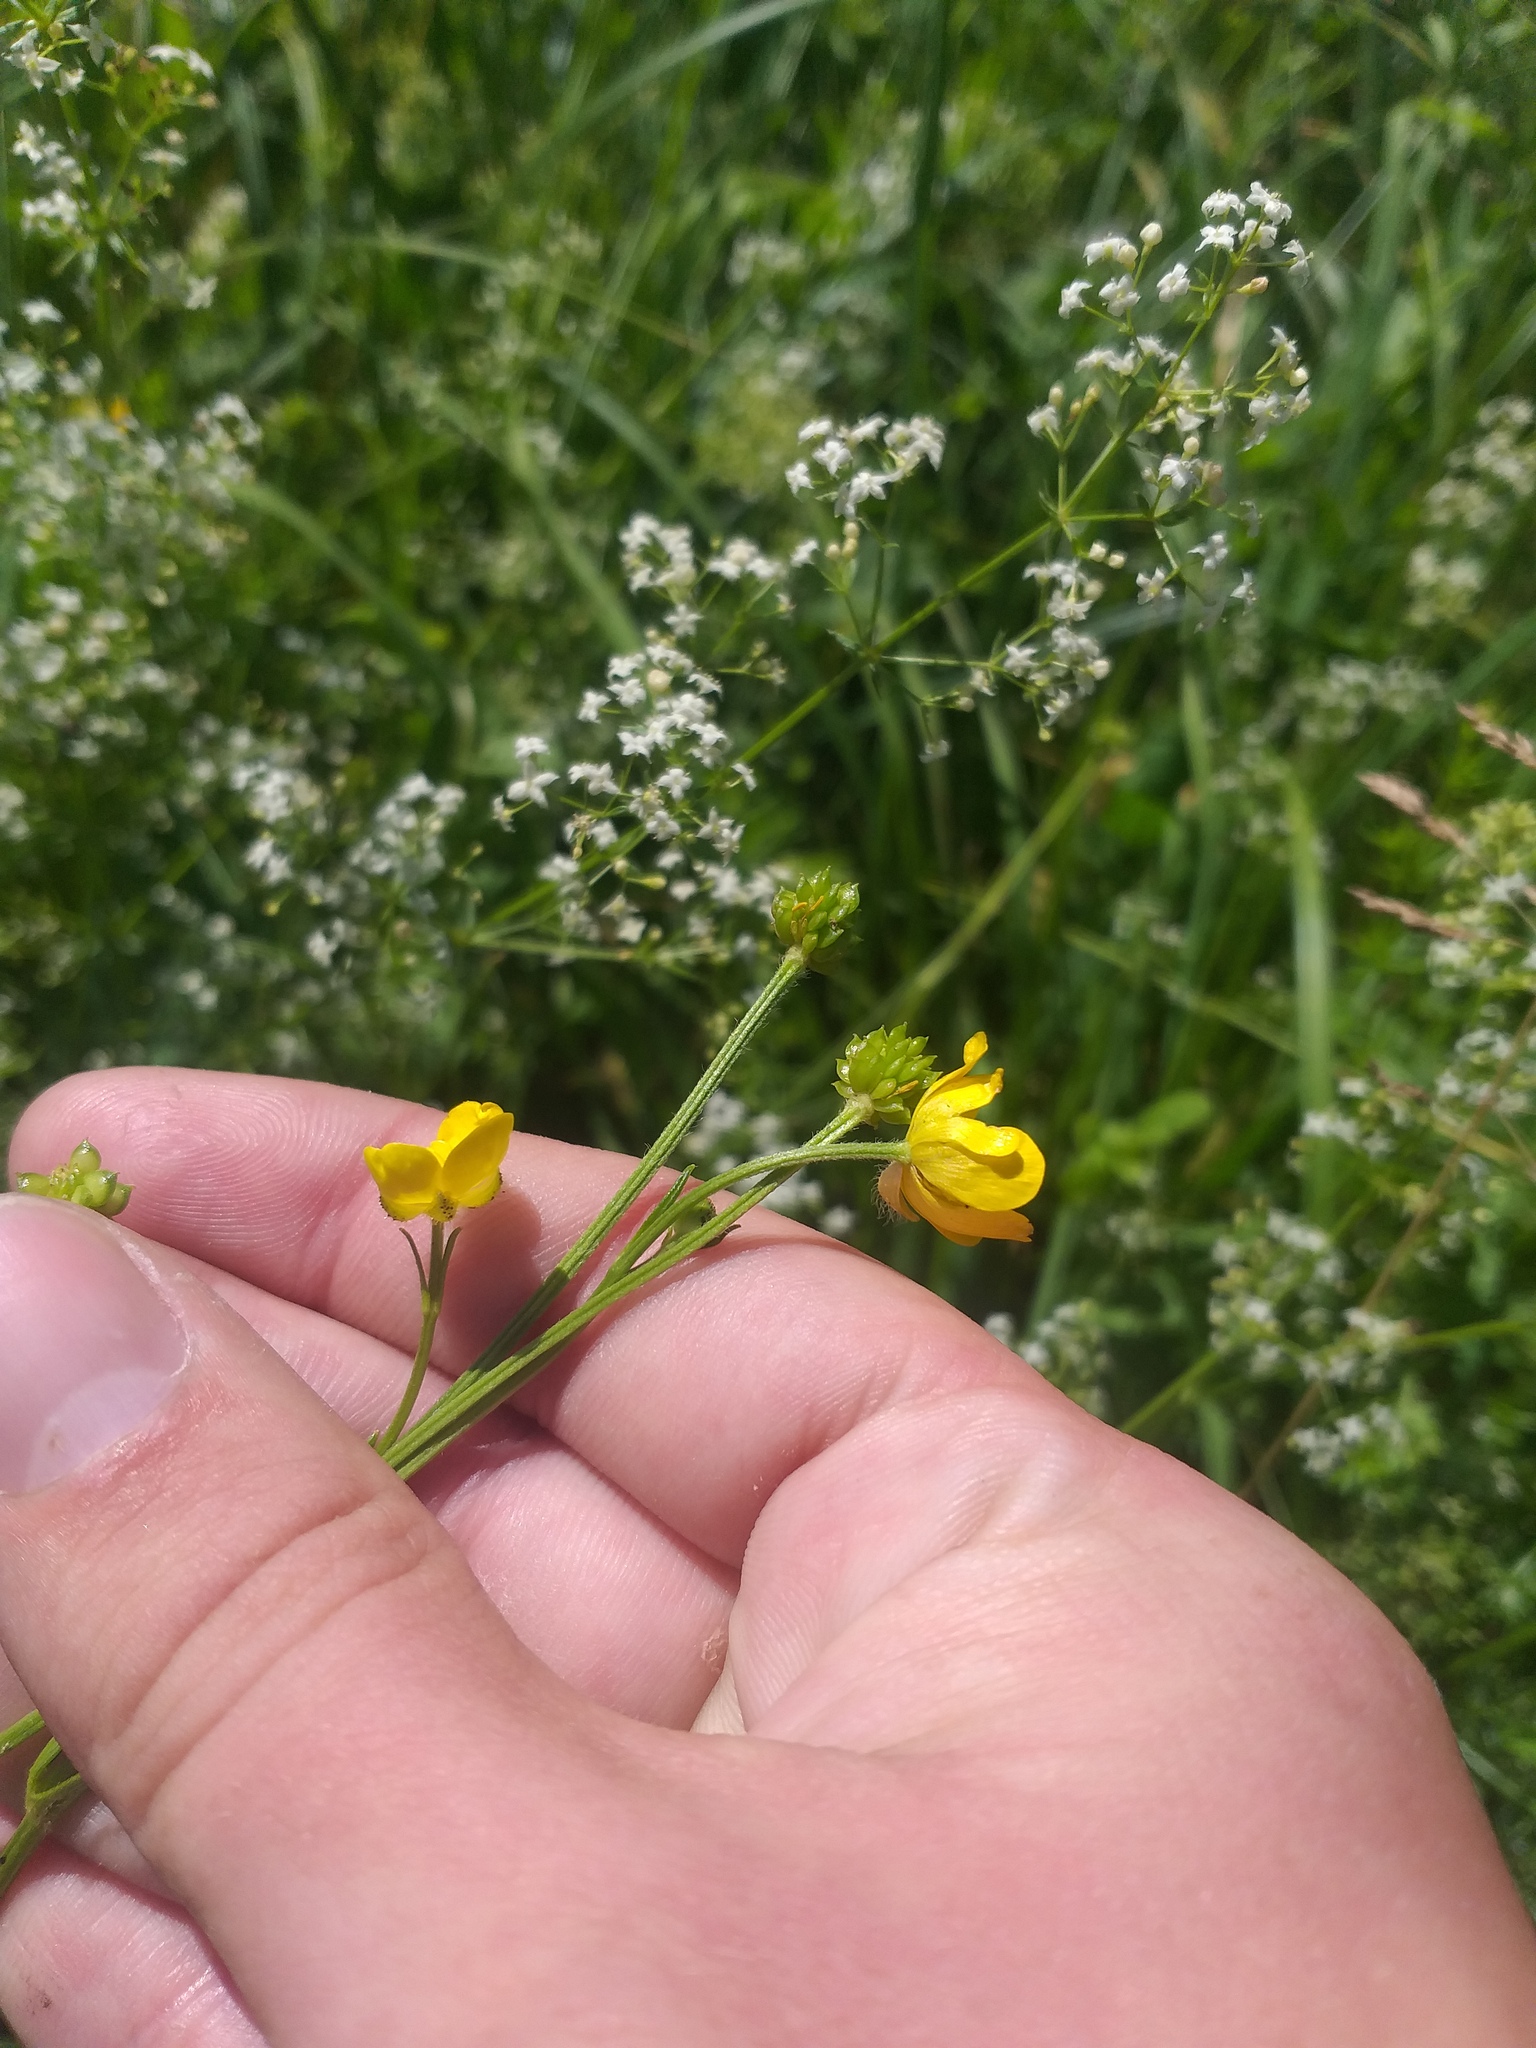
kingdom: Plantae
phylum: Tracheophyta
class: Magnoliopsida
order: Ranunculales
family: Ranunculaceae
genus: Ranunculus
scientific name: Ranunculus polyanthemos
